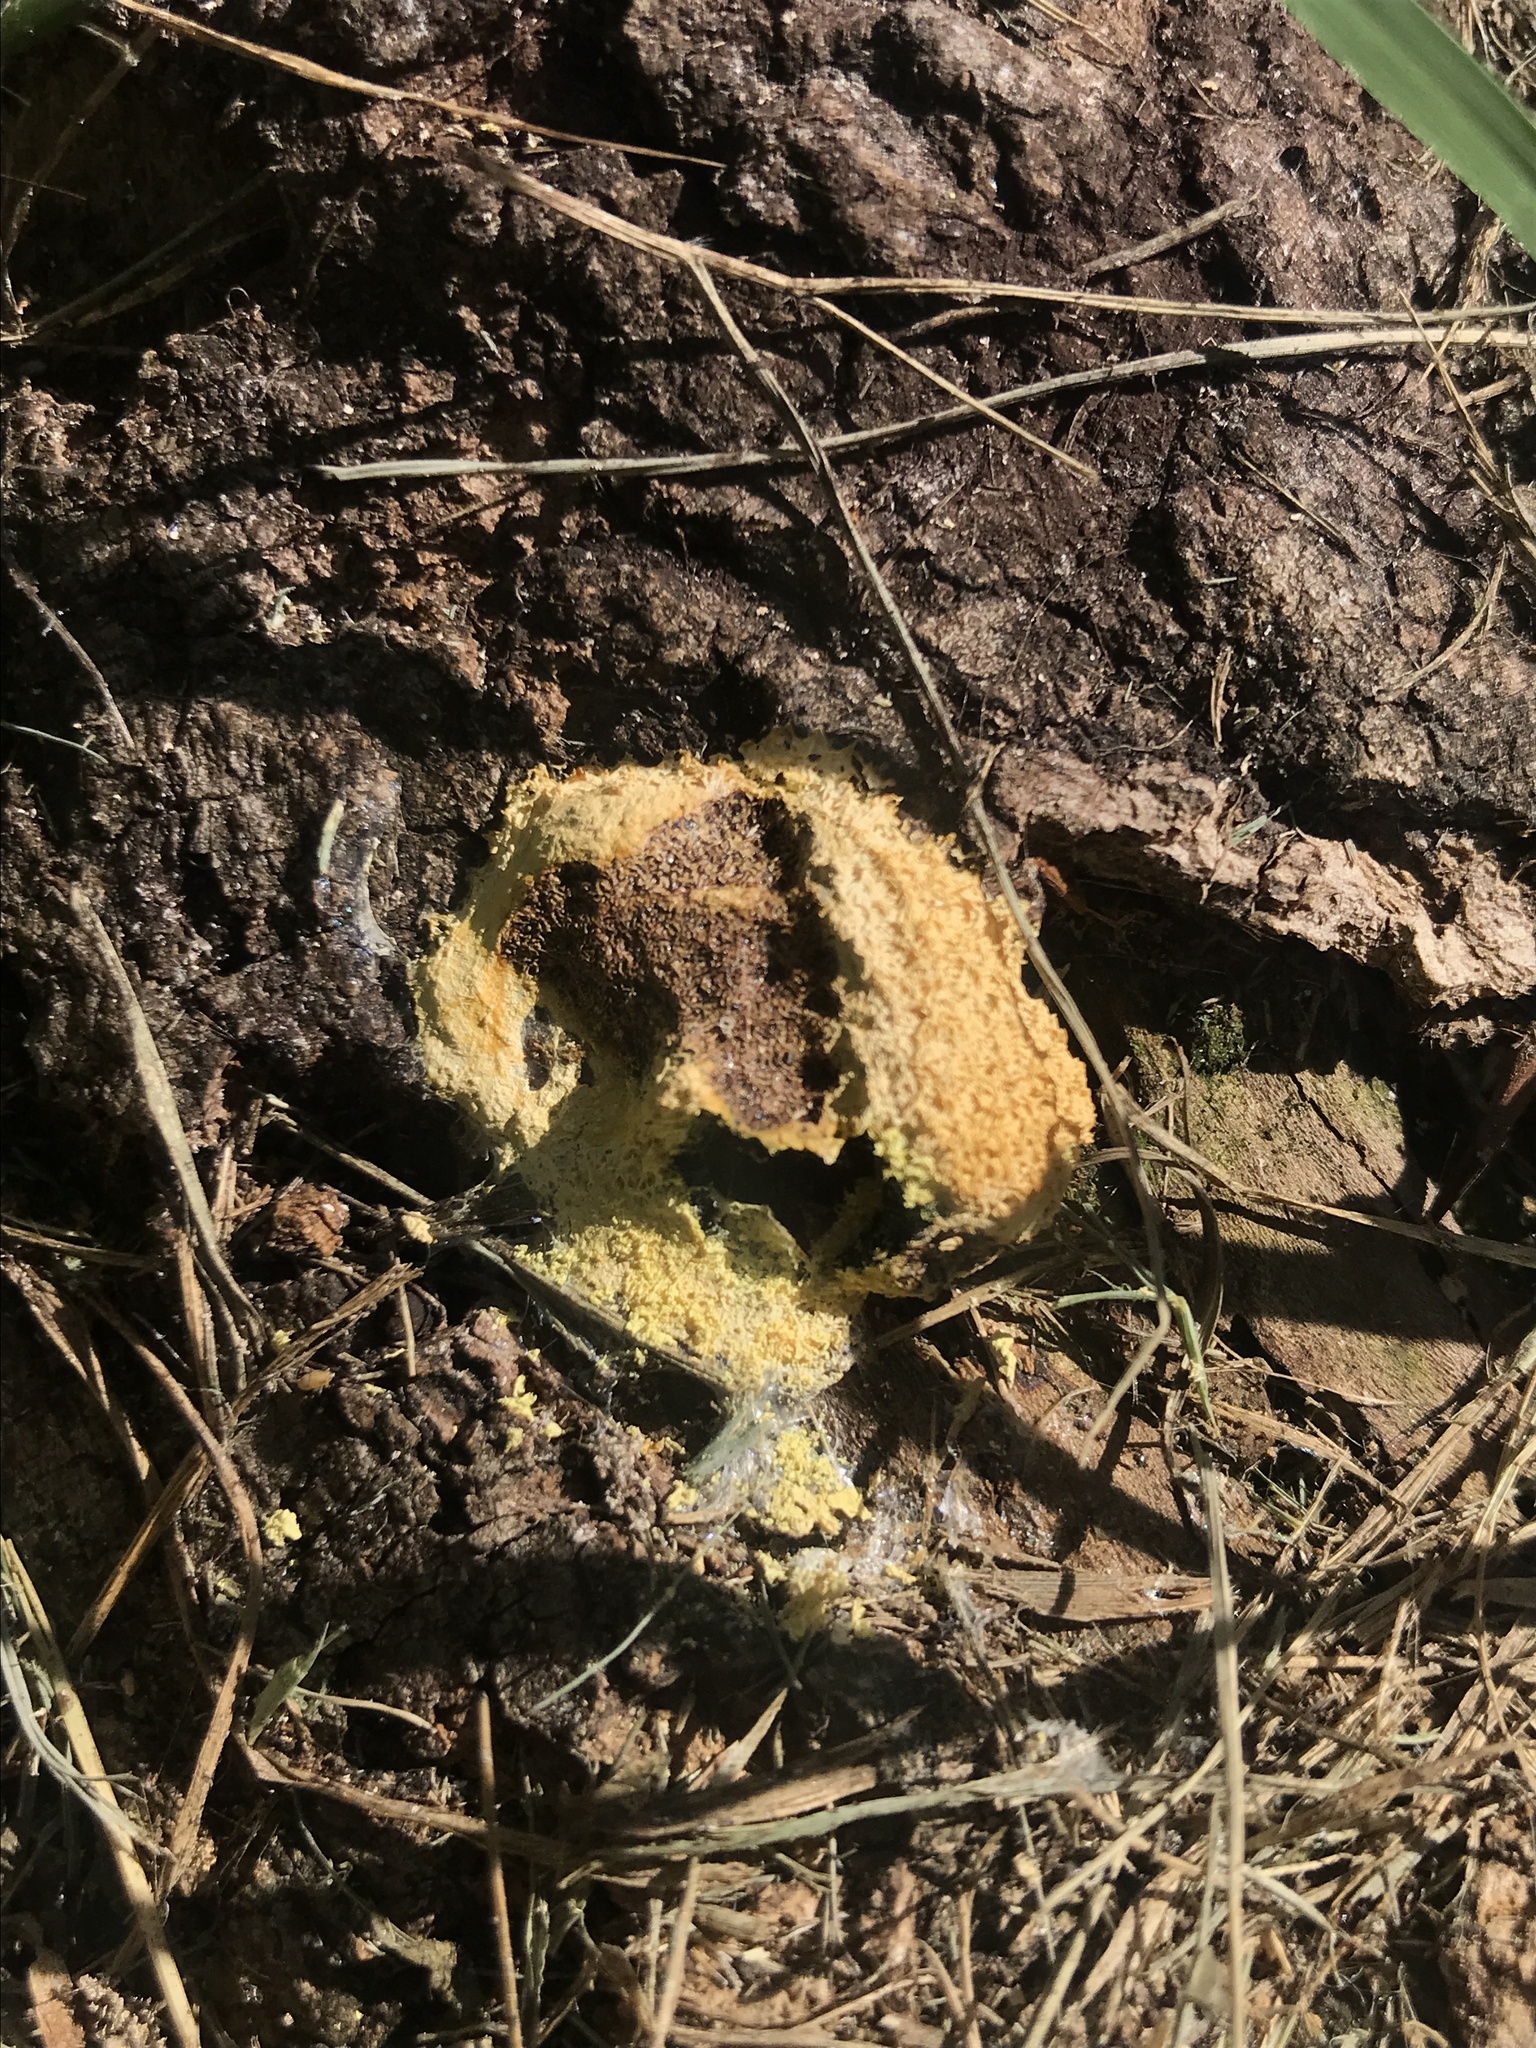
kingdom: Protozoa
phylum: Mycetozoa
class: Myxomycetes
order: Physarales
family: Physaraceae
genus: Fuligo
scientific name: Fuligo septica
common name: Dog vomit slime mold
